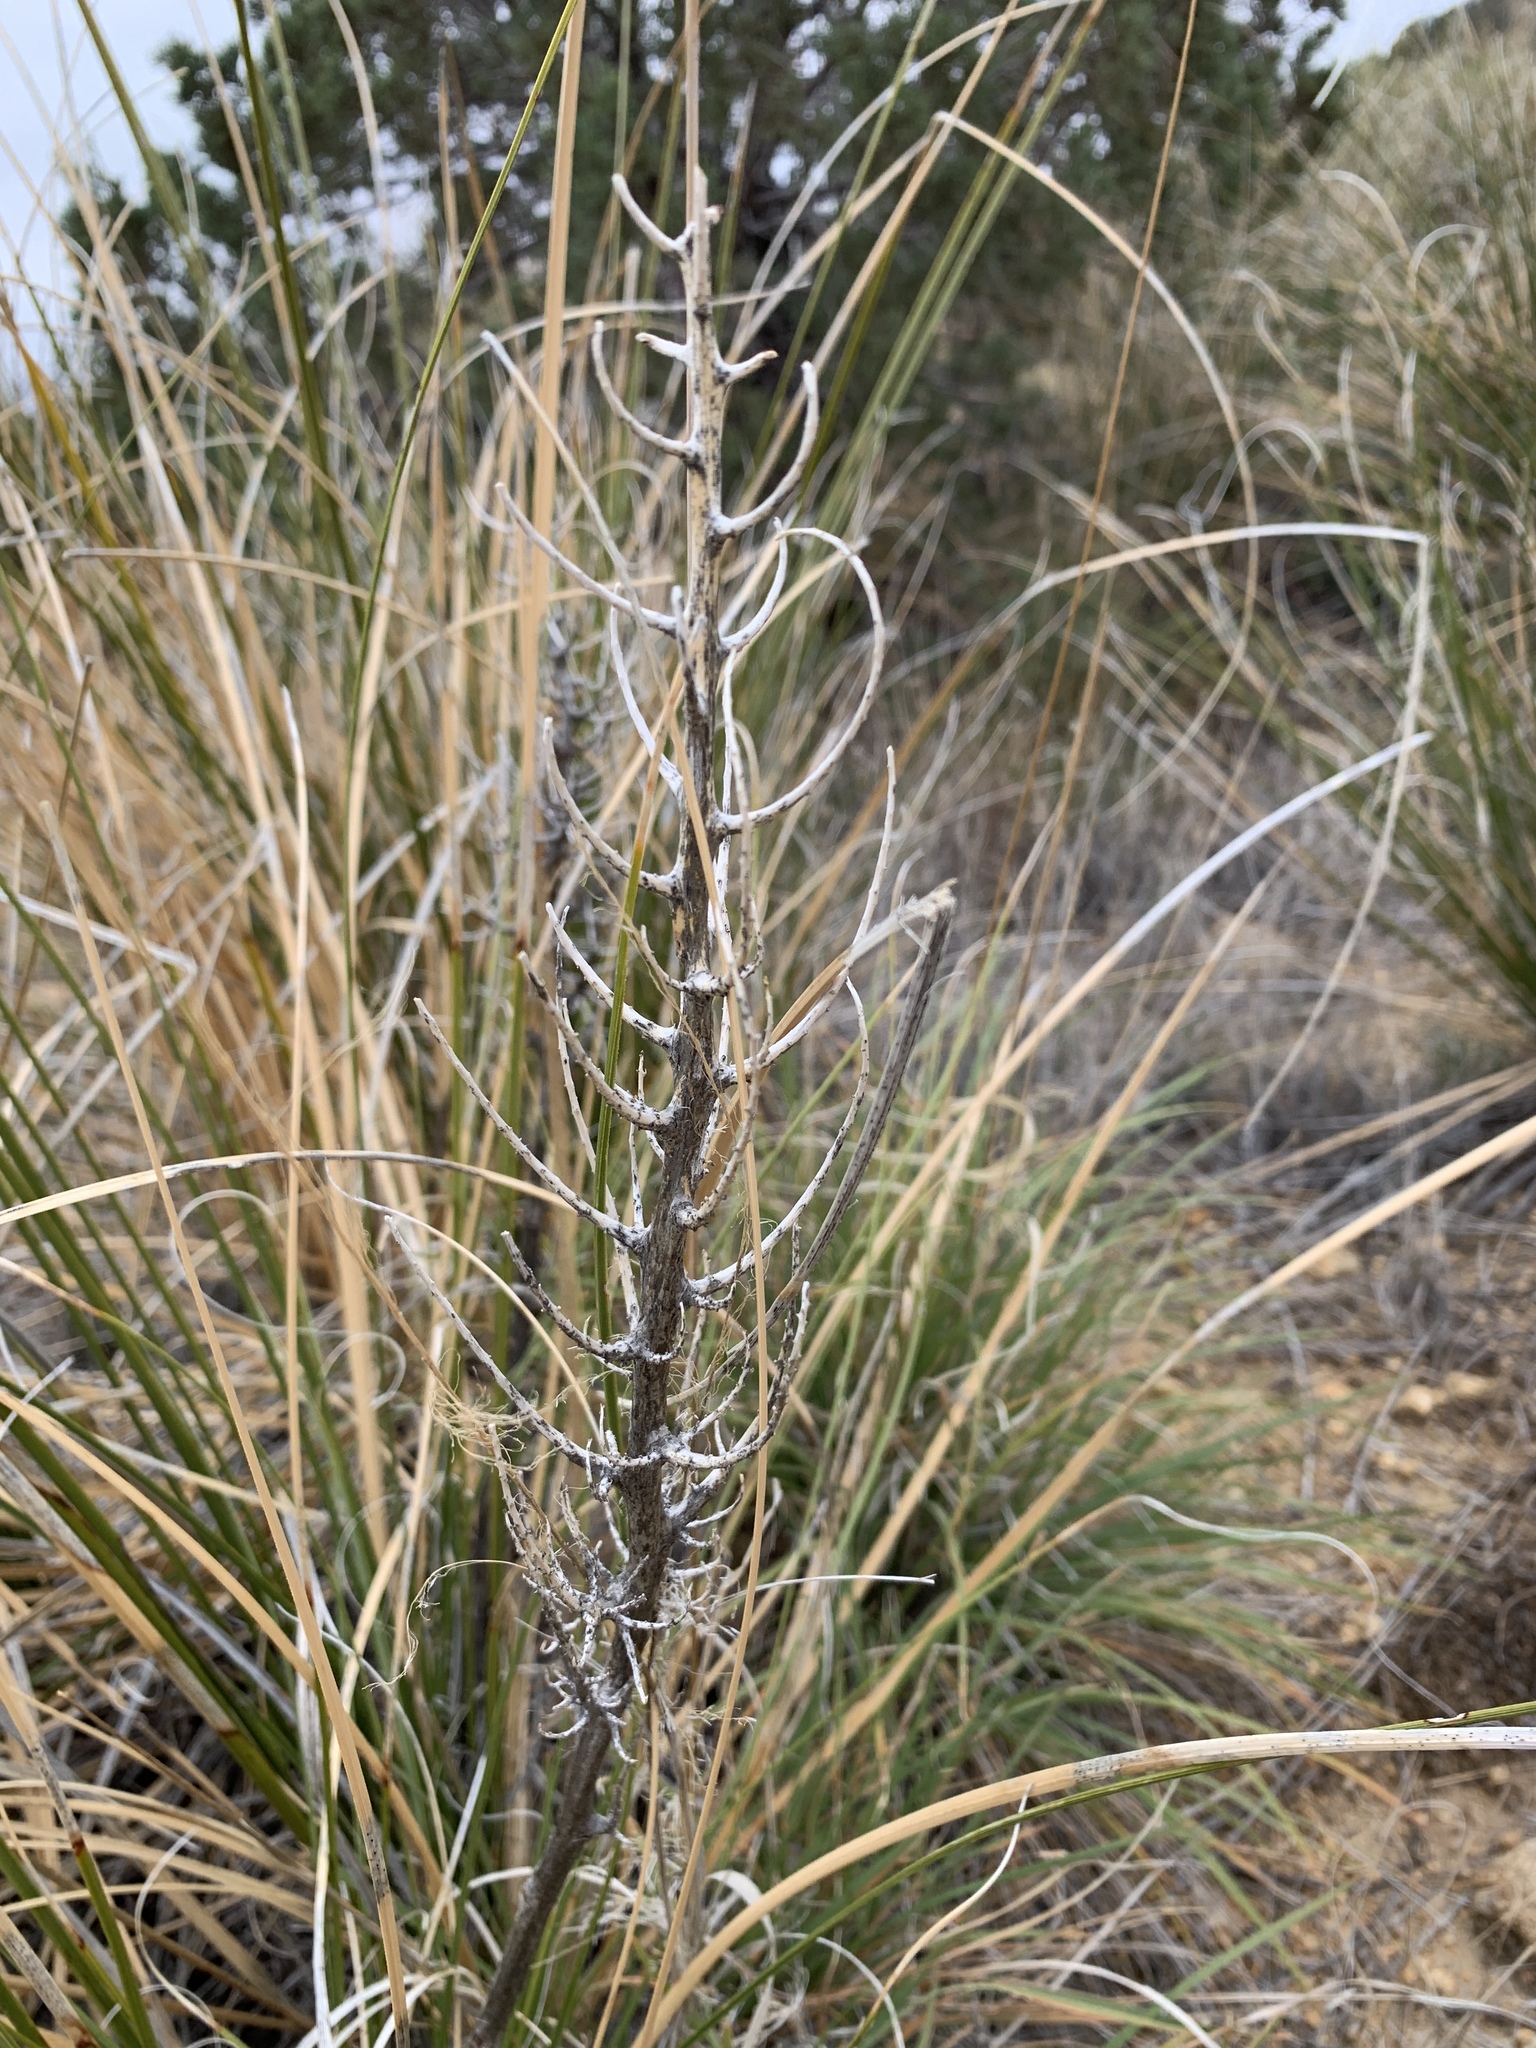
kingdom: Plantae
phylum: Tracheophyta
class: Liliopsida
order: Asparagales
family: Asparagaceae
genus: Nolina
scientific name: Nolina microcarpa
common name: Bear-grass
